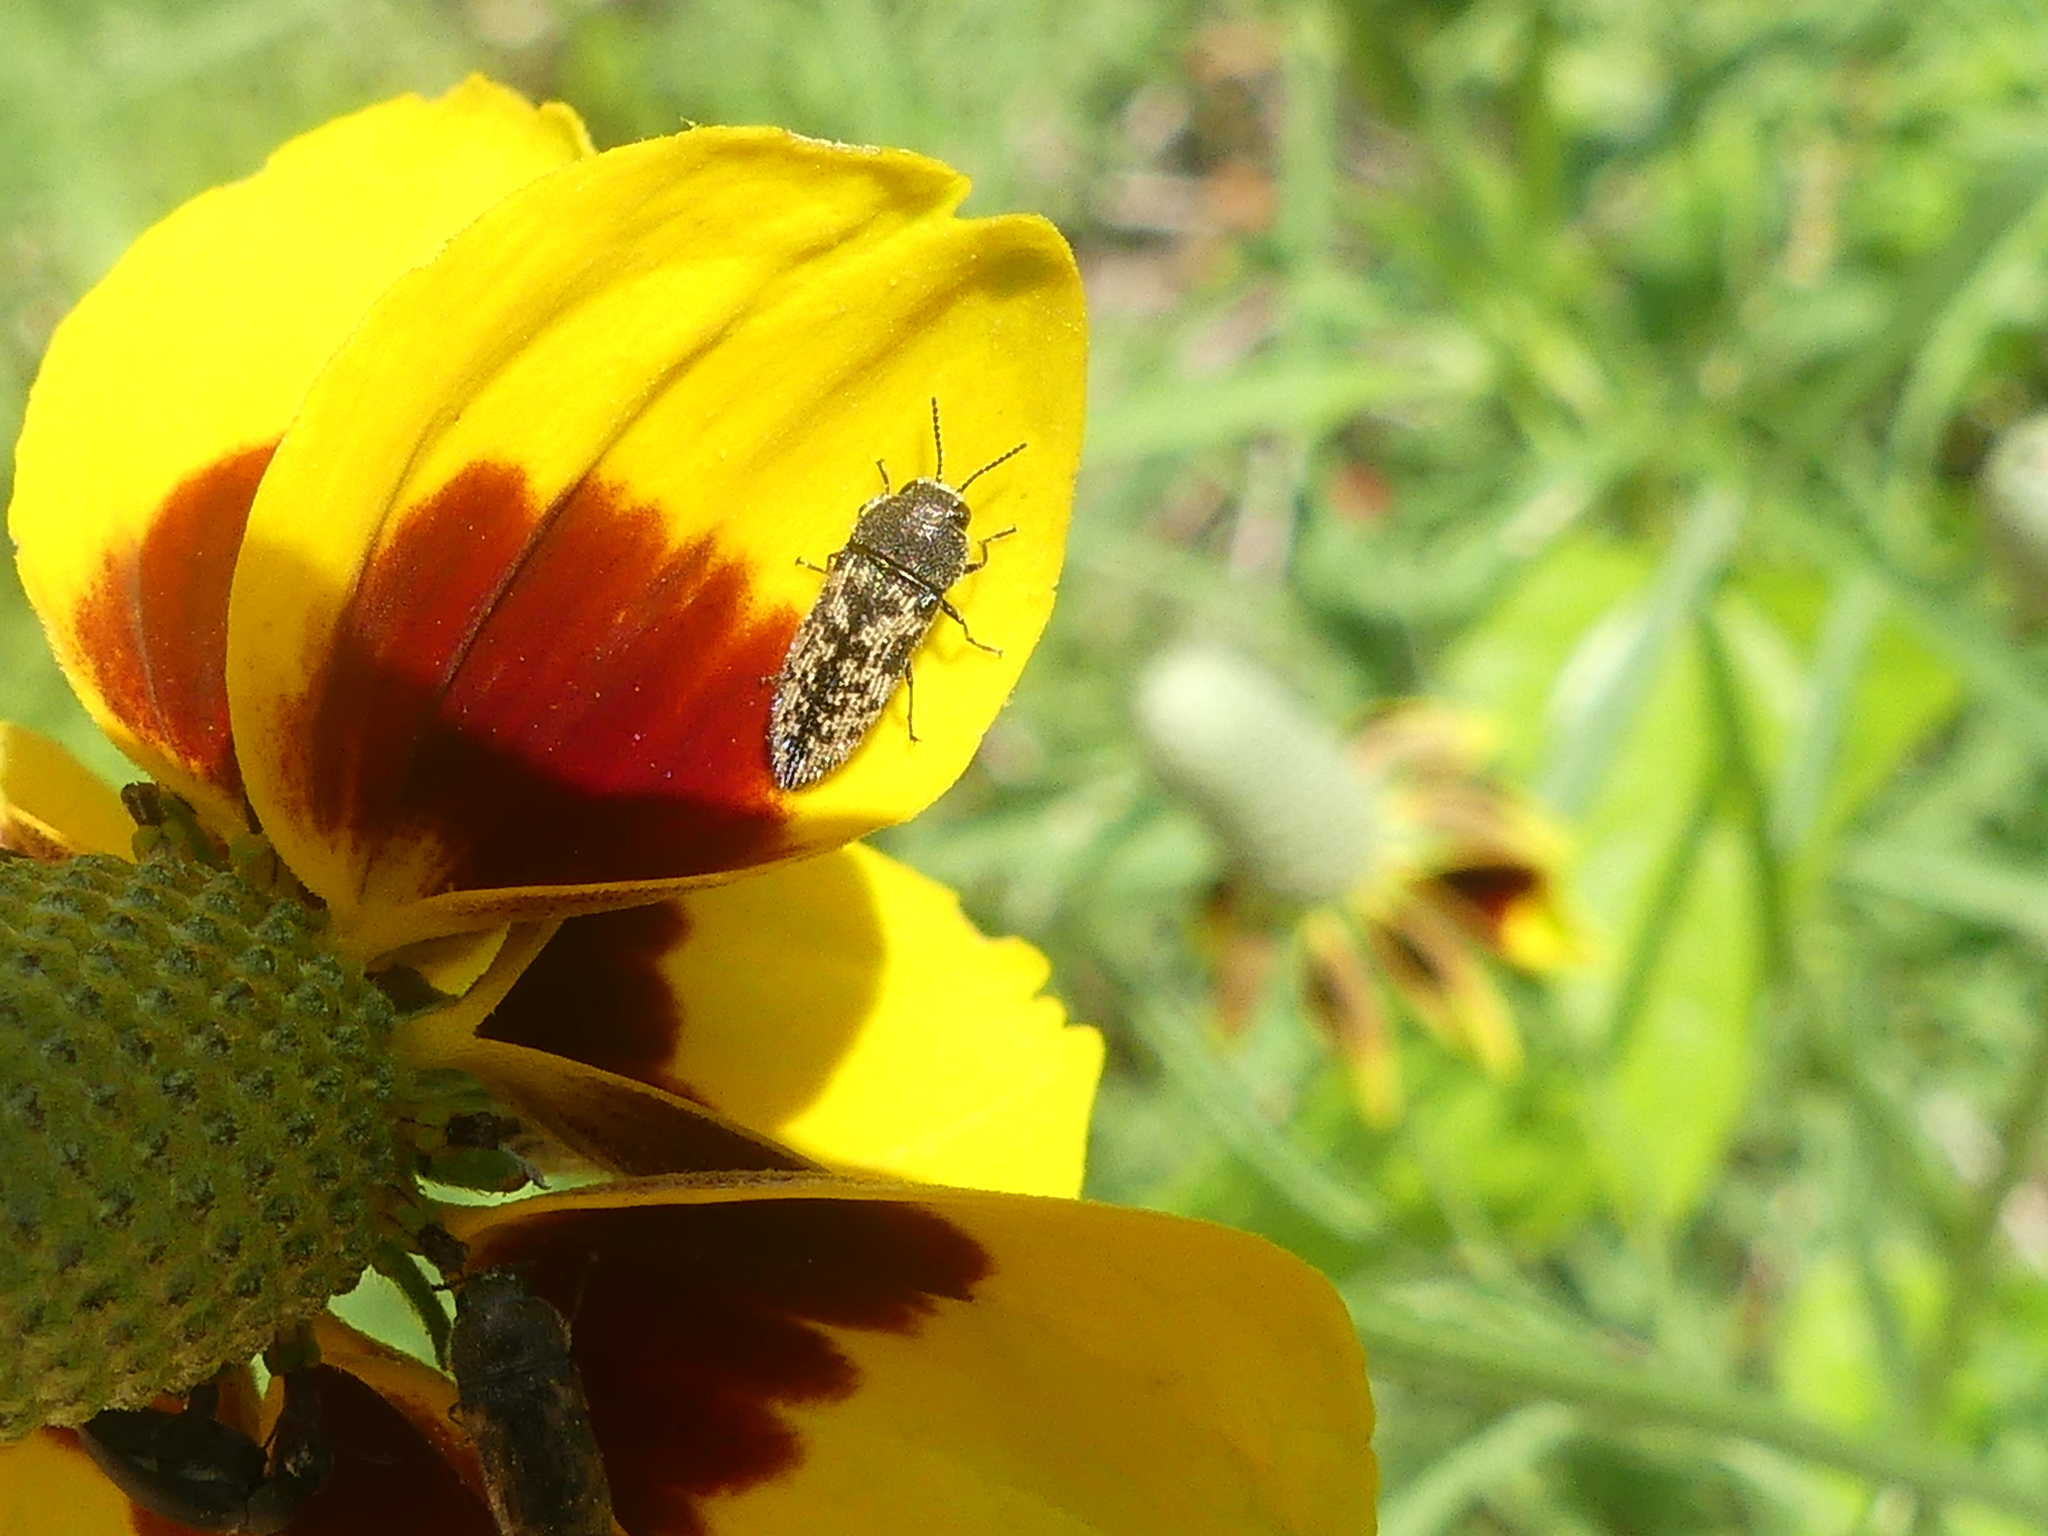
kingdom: Animalia
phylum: Arthropoda
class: Insecta
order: Coleoptera
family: Buprestidae
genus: Acmaeodera
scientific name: Acmaeodera neglecta
